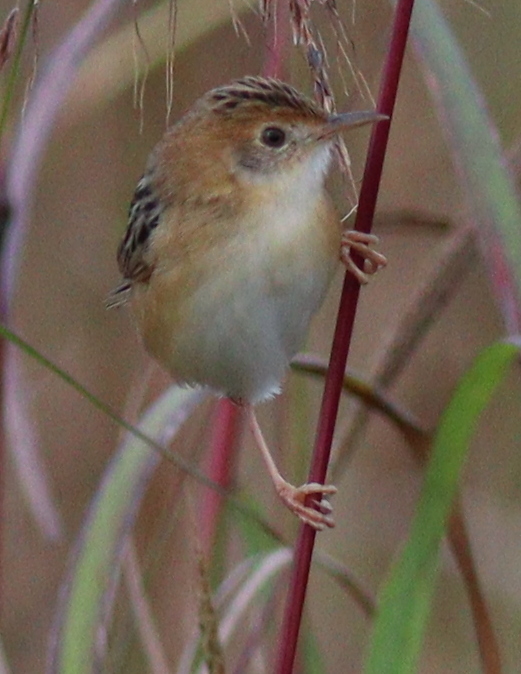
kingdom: Animalia
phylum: Chordata
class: Aves
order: Passeriformes
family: Cisticolidae
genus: Cisticola
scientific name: Cisticola exilis
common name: Golden-headed cisticola
